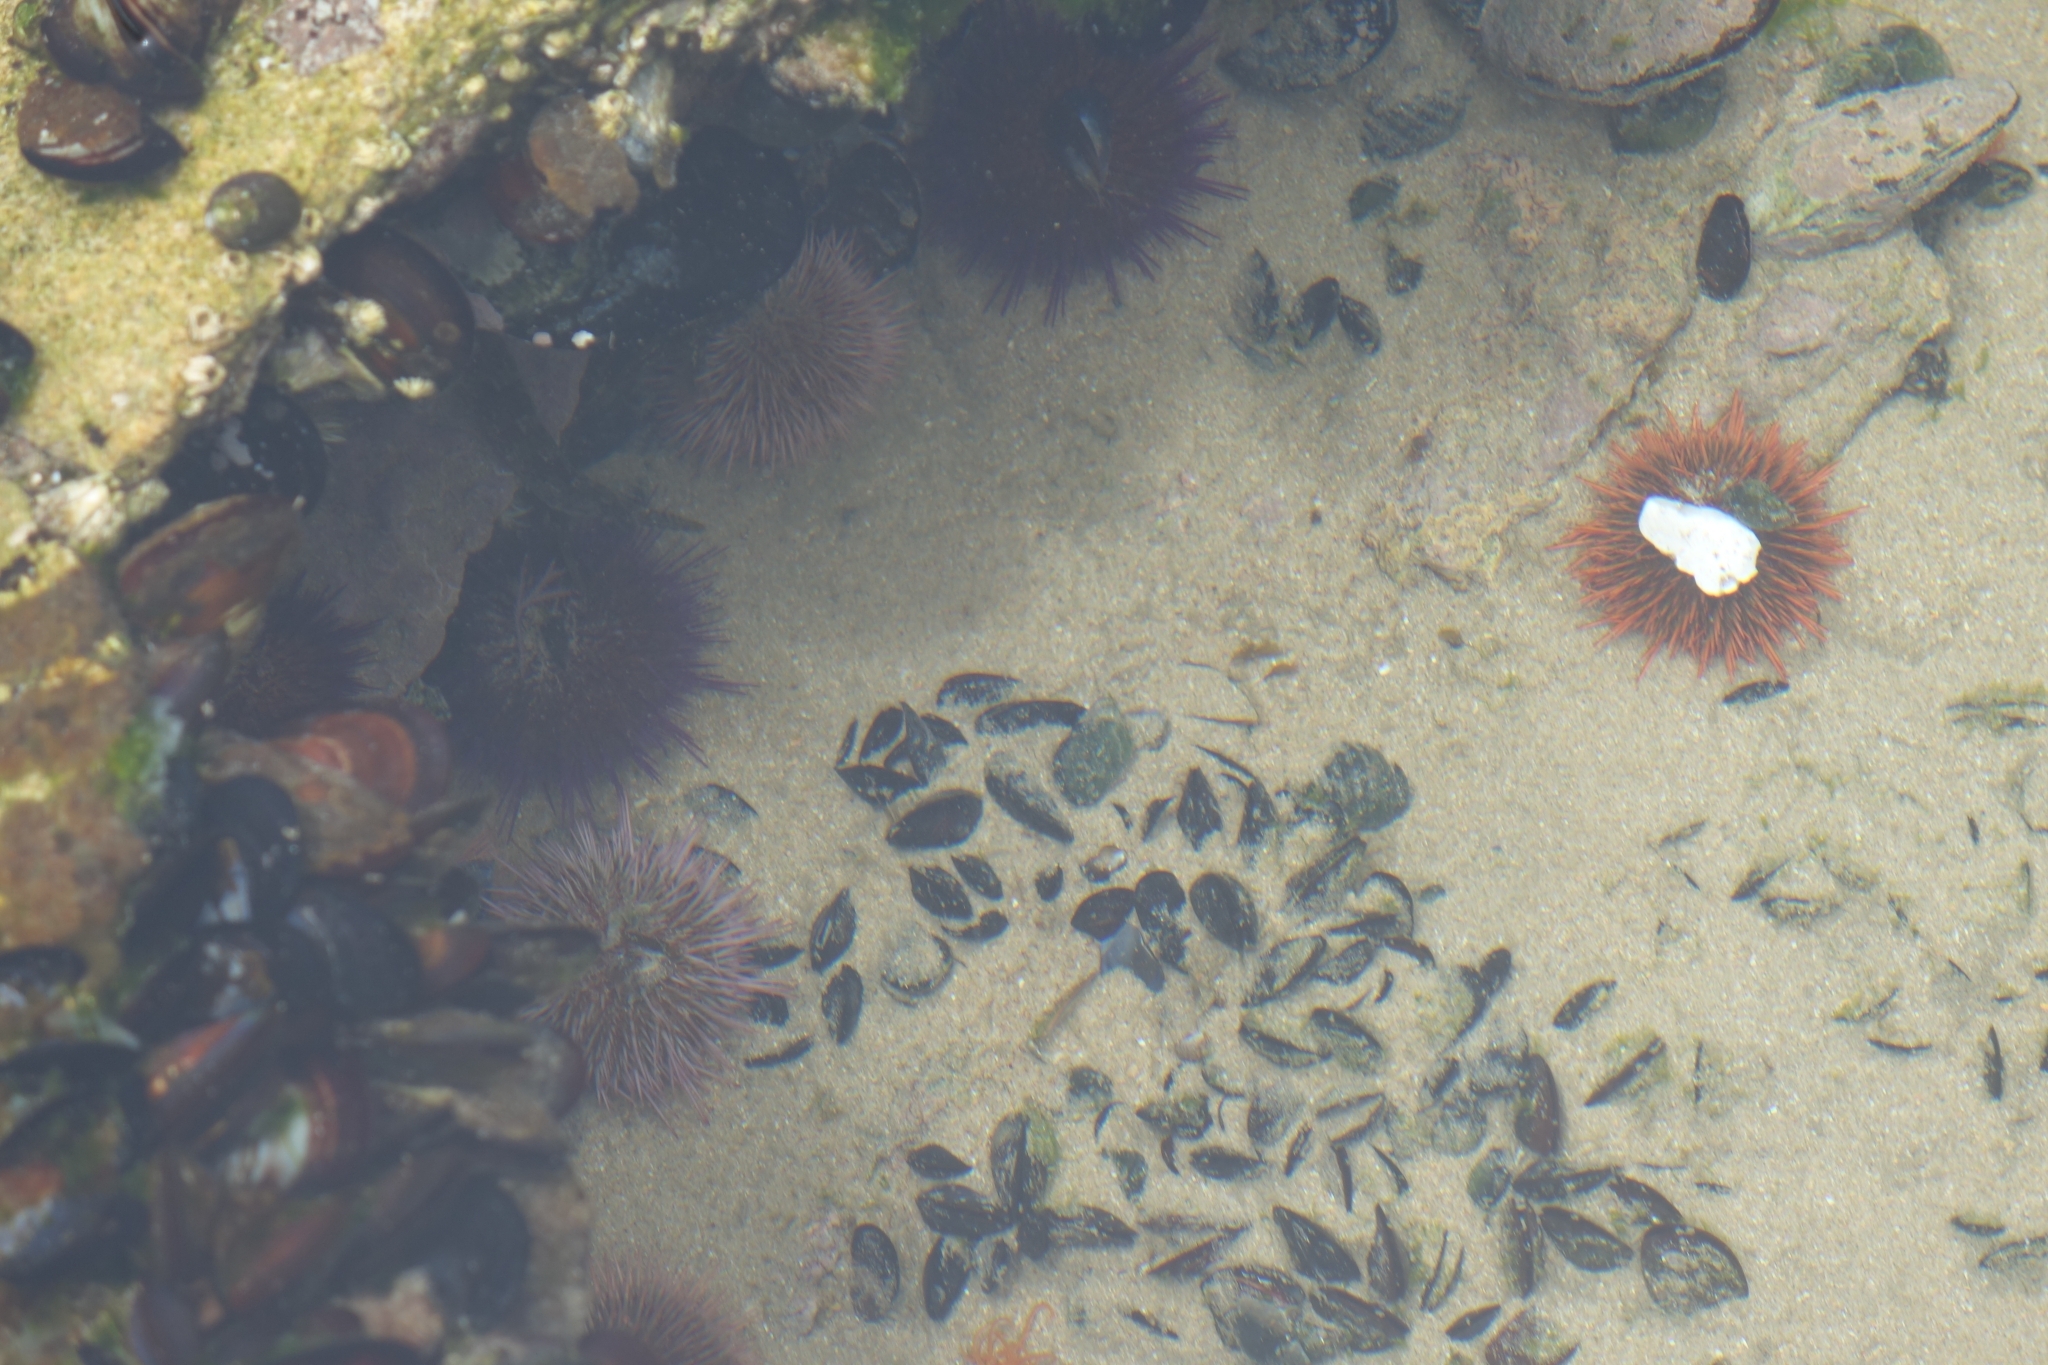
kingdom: Animalia
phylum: Echinodermata
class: Echinoidea
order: Camarodonta
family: Parechinidae
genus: Parechinus
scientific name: Parechinus angulosus
